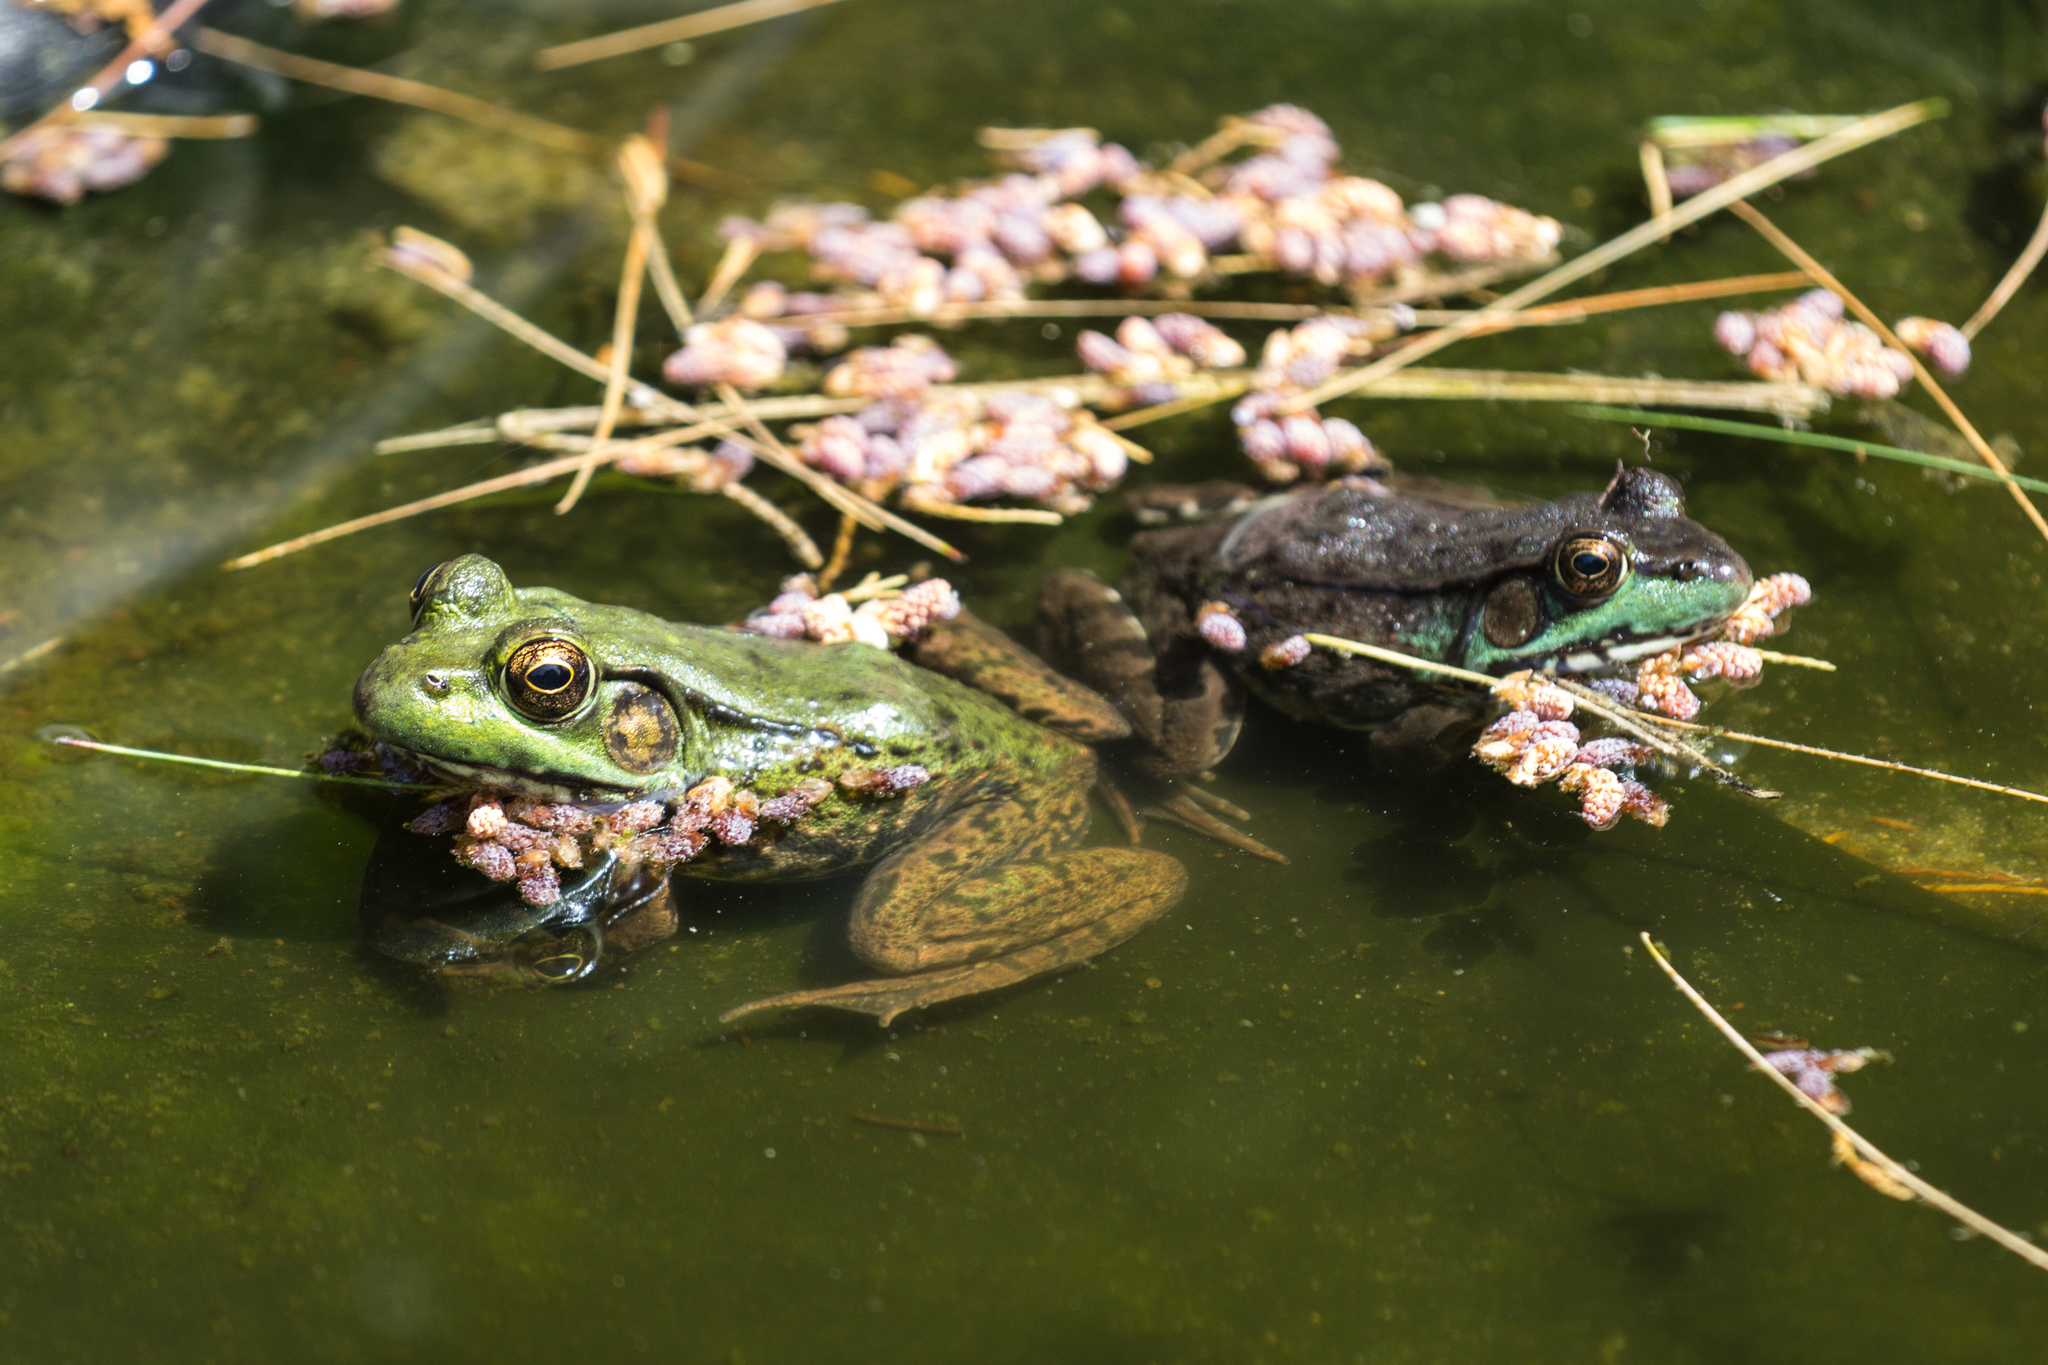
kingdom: Animalia
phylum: Chordata
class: Amphibia
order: Anura
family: Ranidae
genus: Lithobates
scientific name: Lithobates clamitans
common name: Green frog
